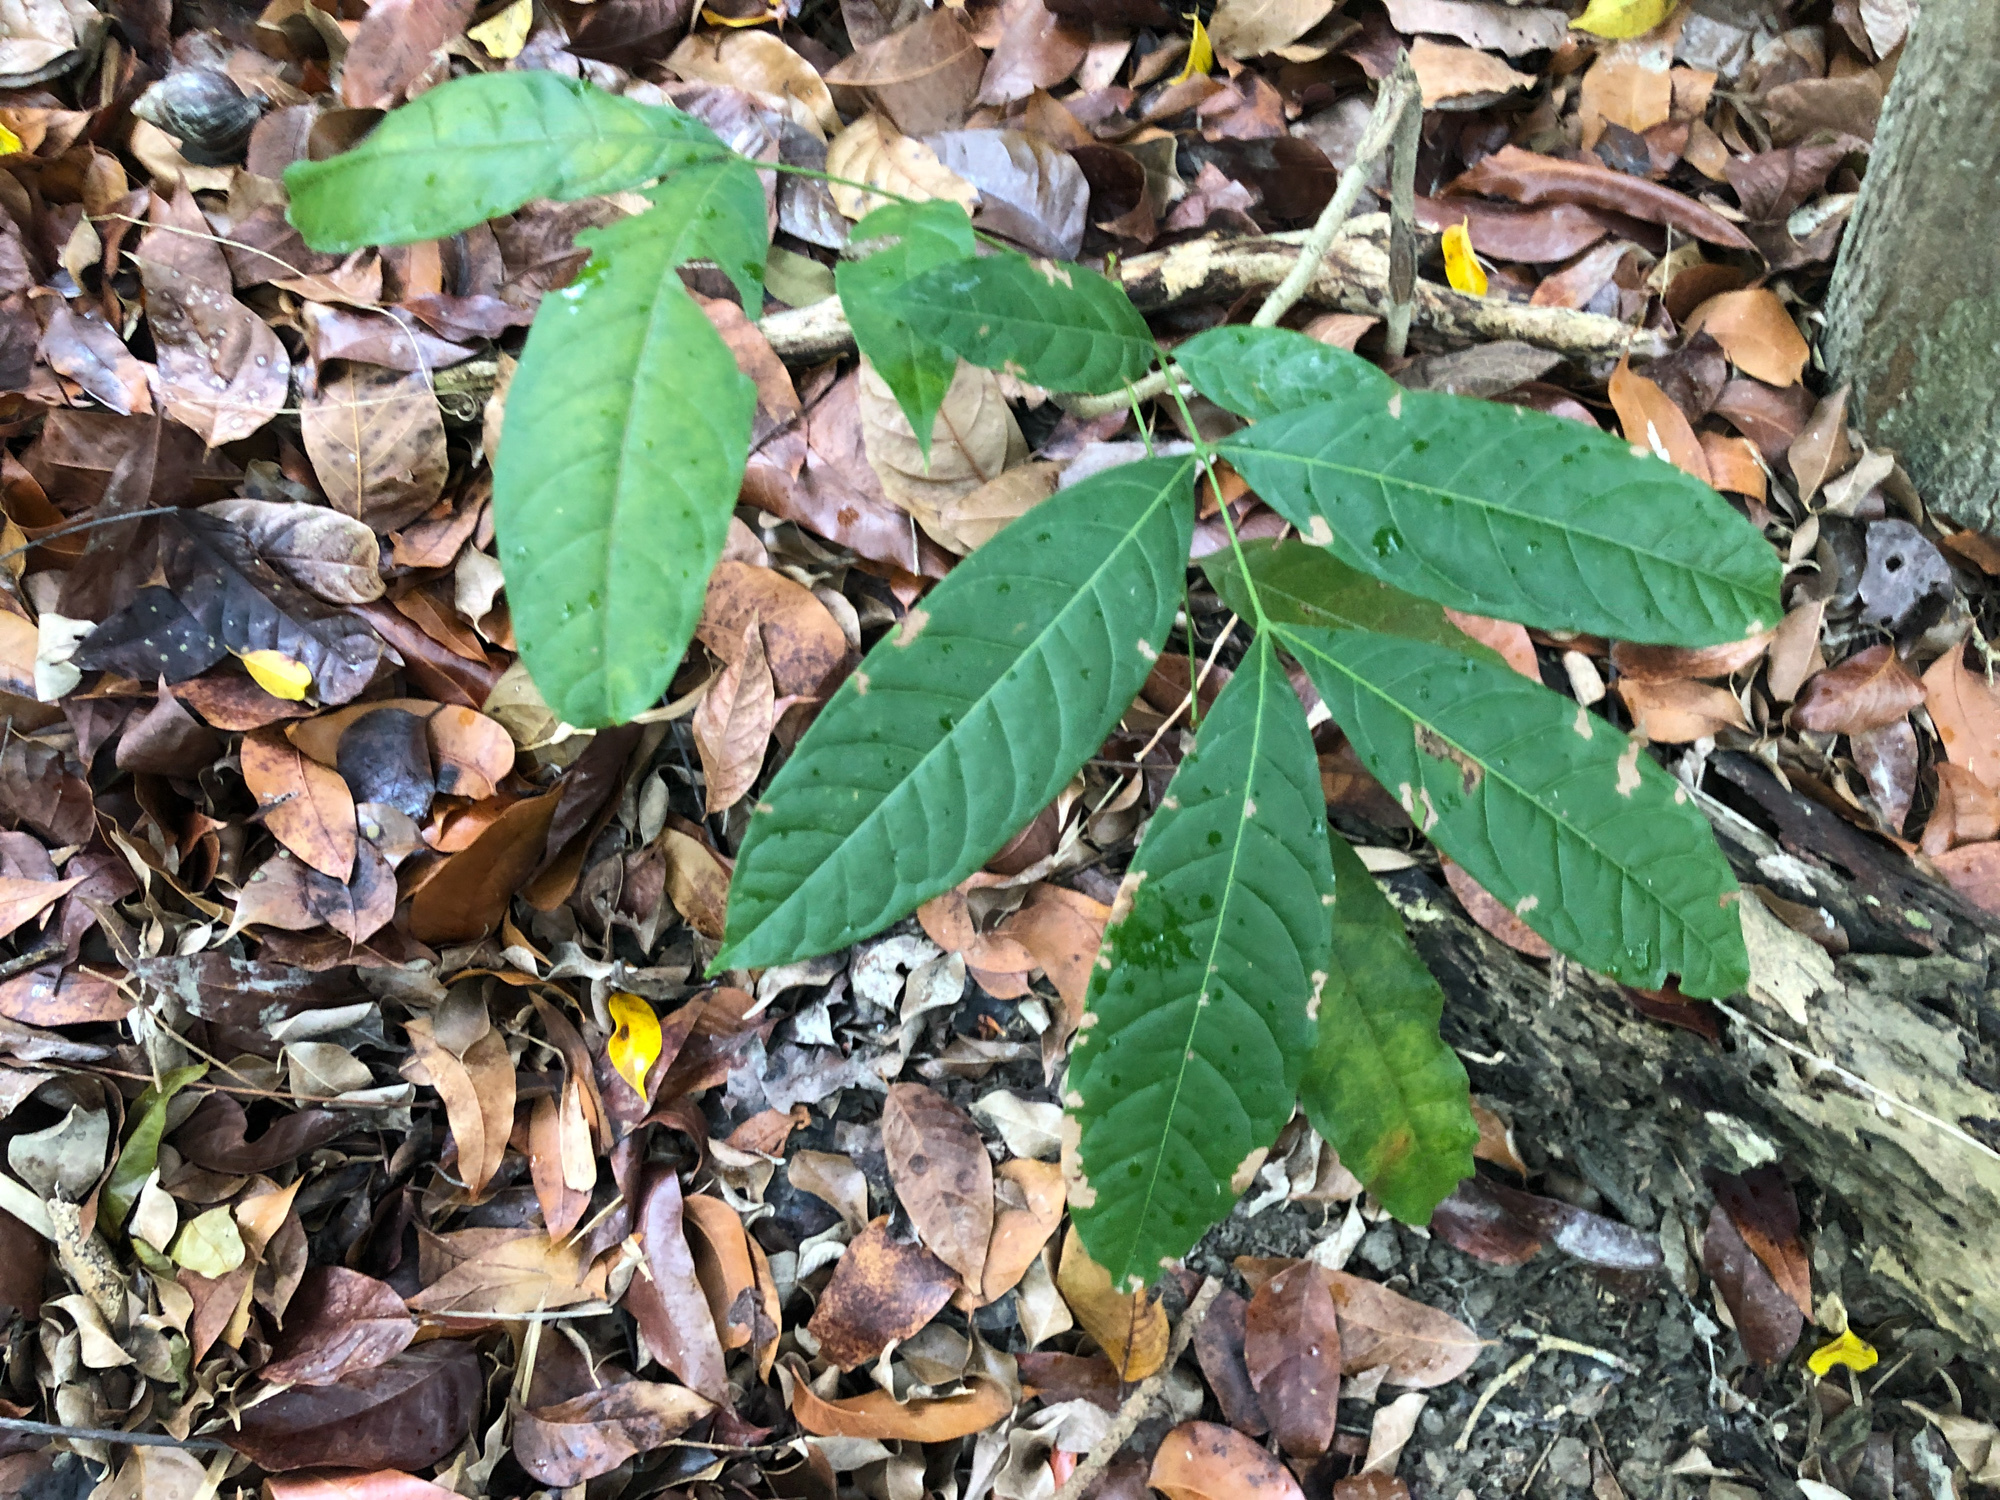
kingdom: Plantae
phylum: Tracheophyta
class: Magnoliopsida
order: Sapindales
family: Meliaceae
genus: Swietenia
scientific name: Swietenia macrophylla
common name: Honduras mahogany
